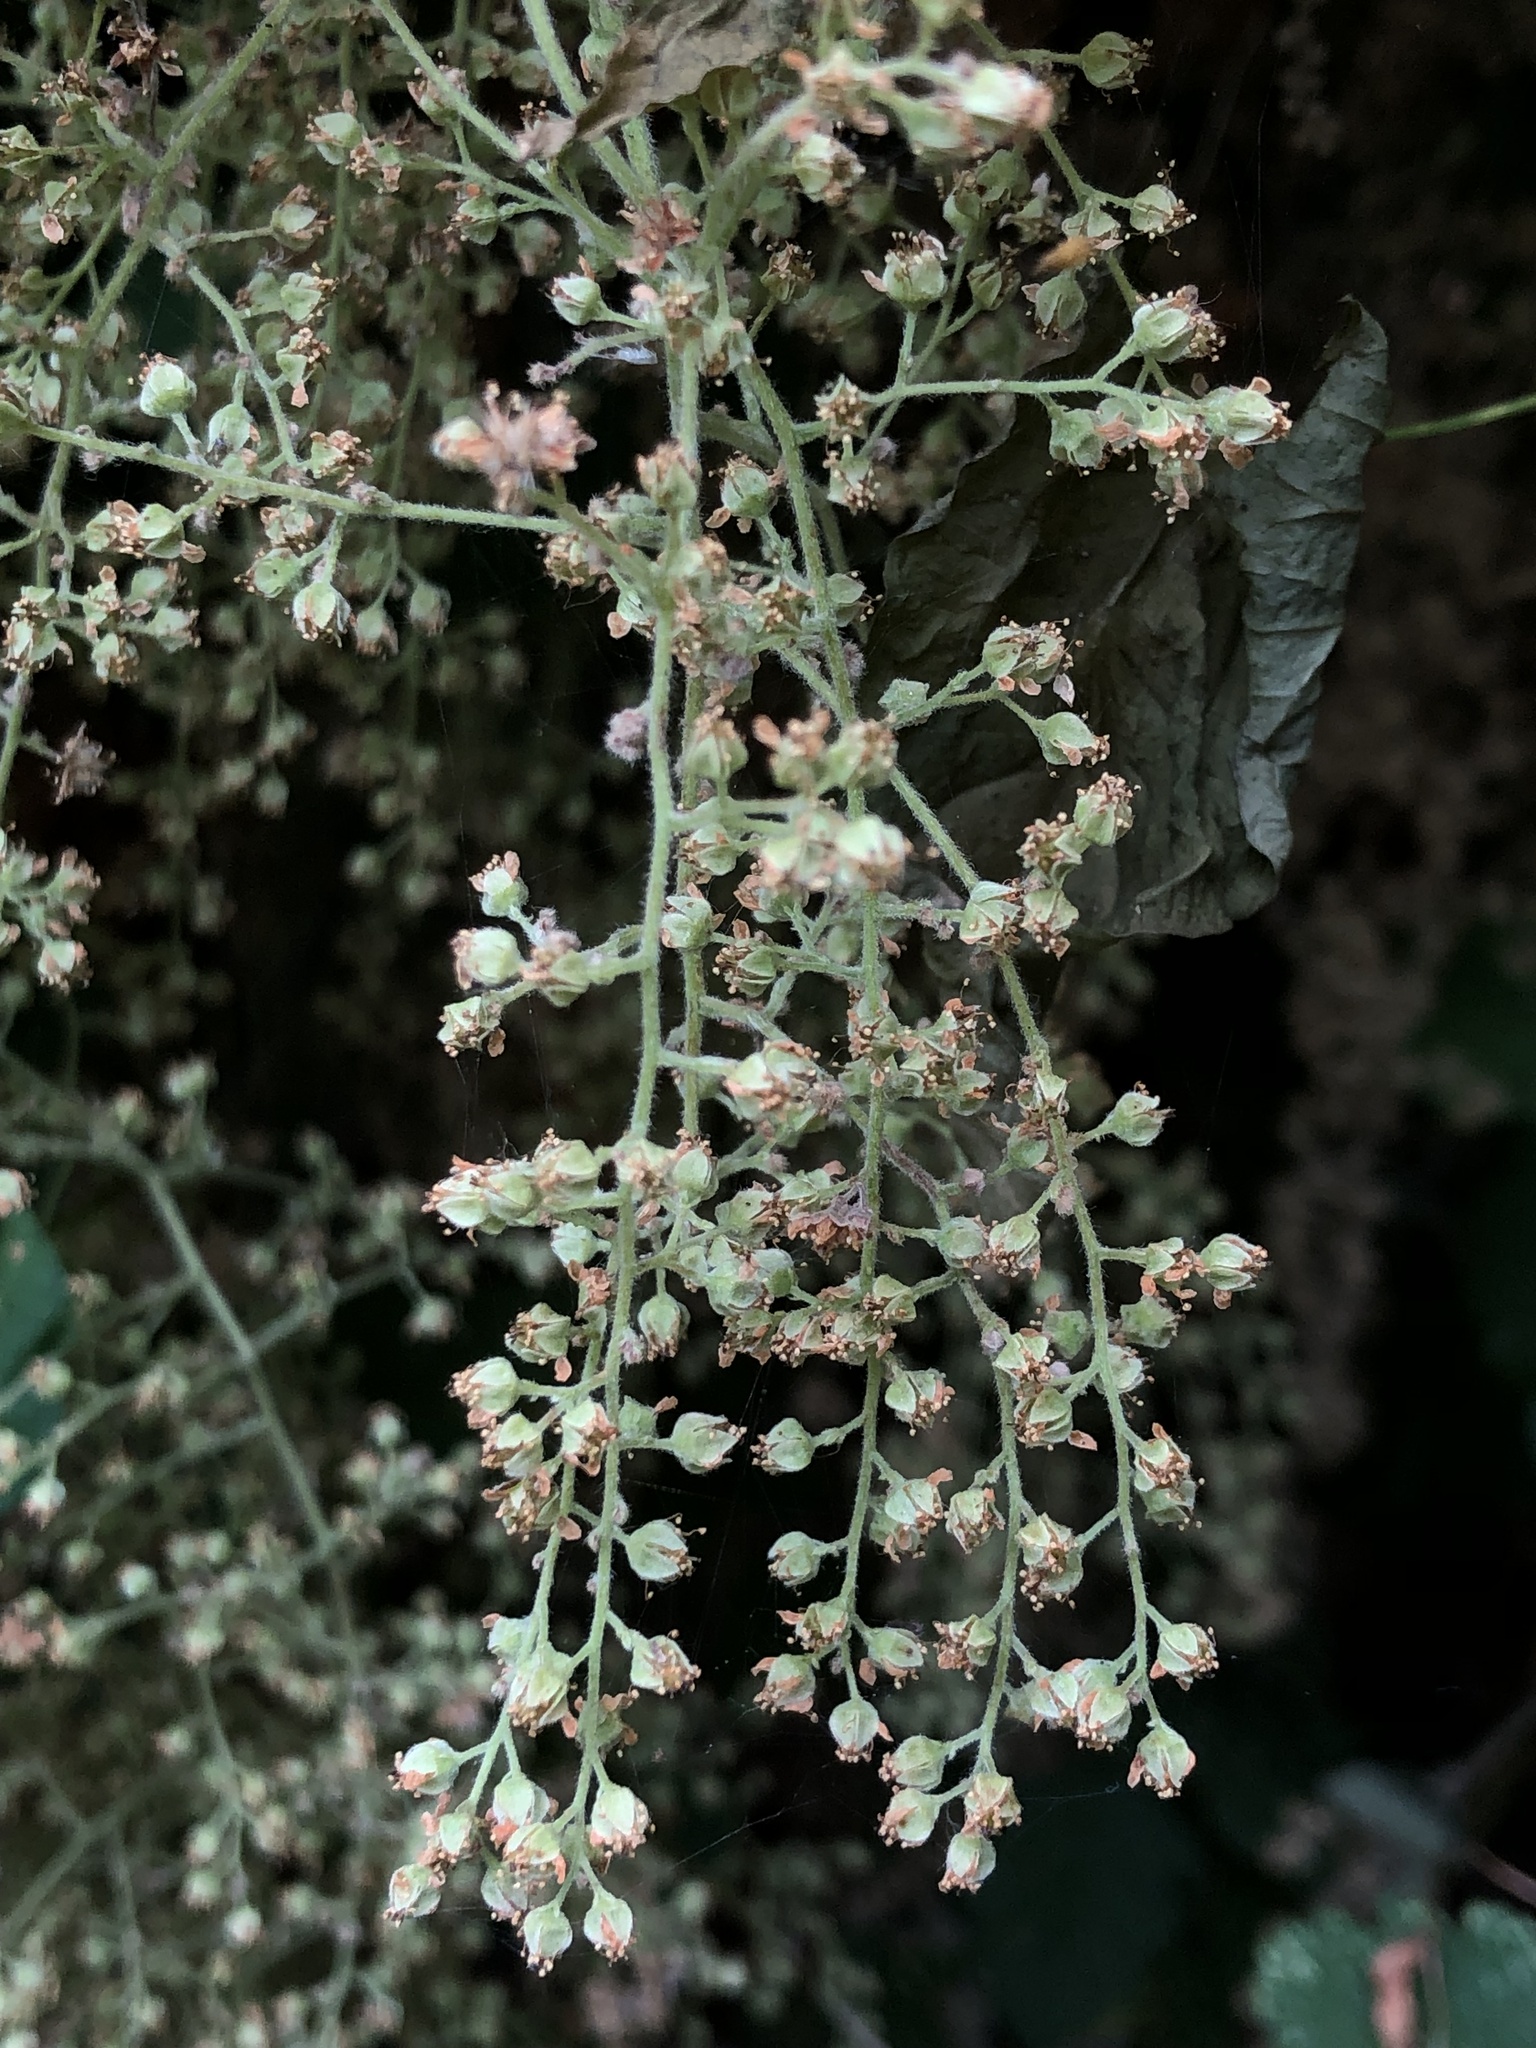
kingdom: Plantae
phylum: Tracheophyta
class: Magnoliopsida
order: Rosales
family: Rosaceae
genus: Holodiscus
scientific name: Holodiscus discolor
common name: Oceanspray
